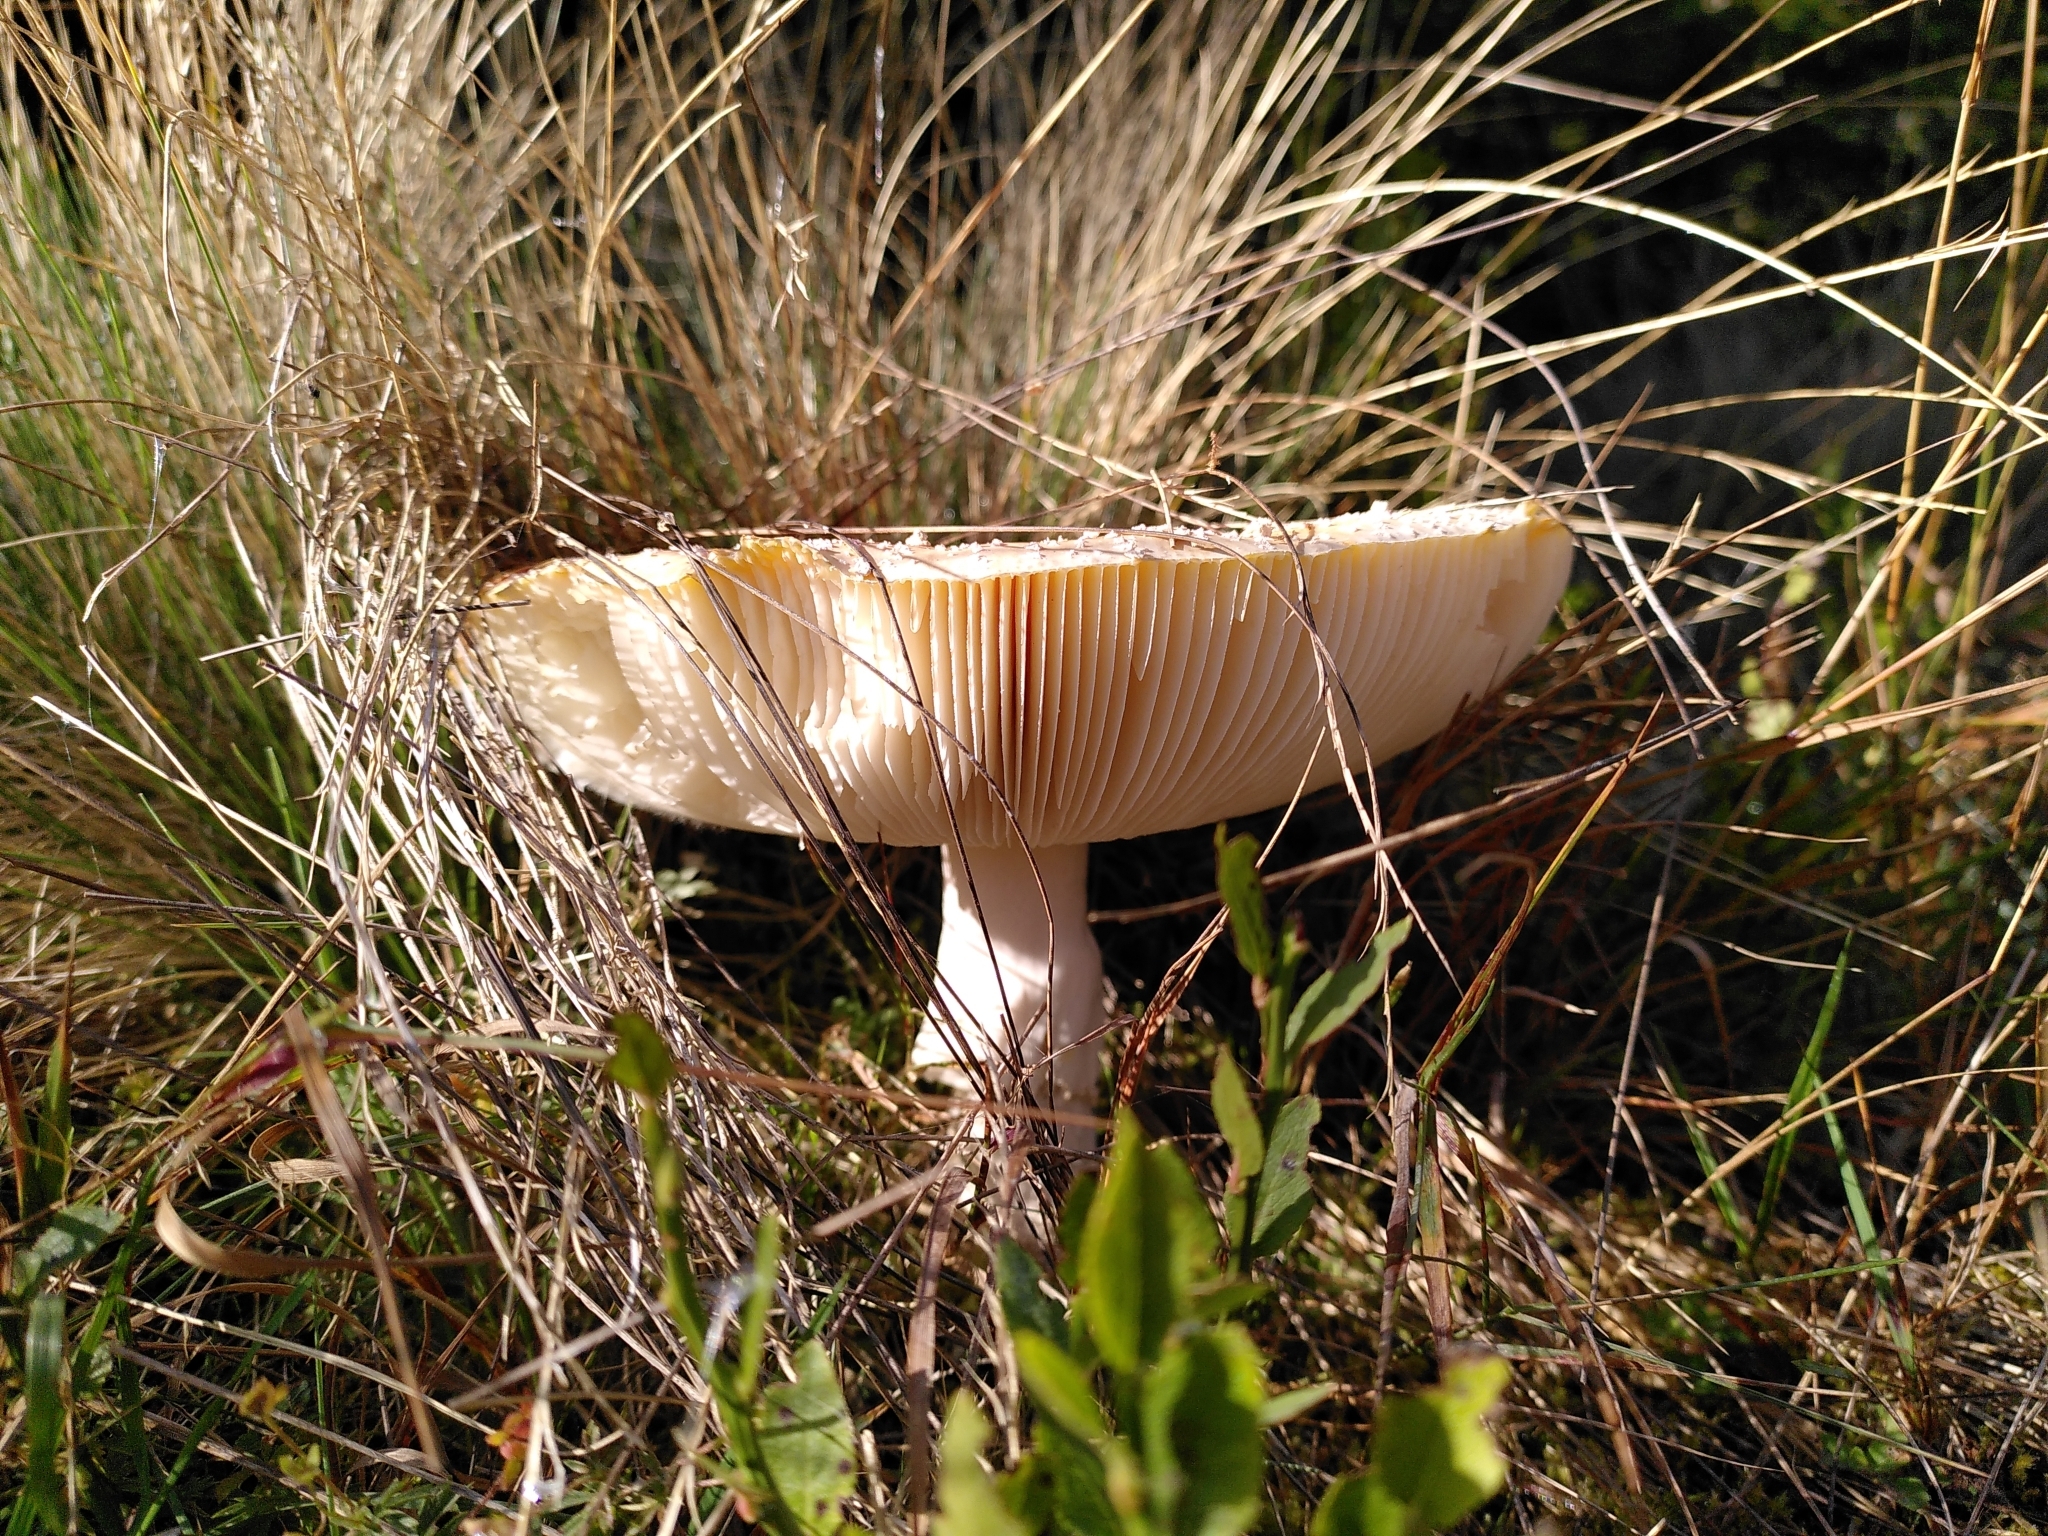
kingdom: Fungi
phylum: Basidiomycota
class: Agaricomycetes
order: Agaricales
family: Amanitaceae
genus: Amanita
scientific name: Amanita muscaria
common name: Fly agaric
